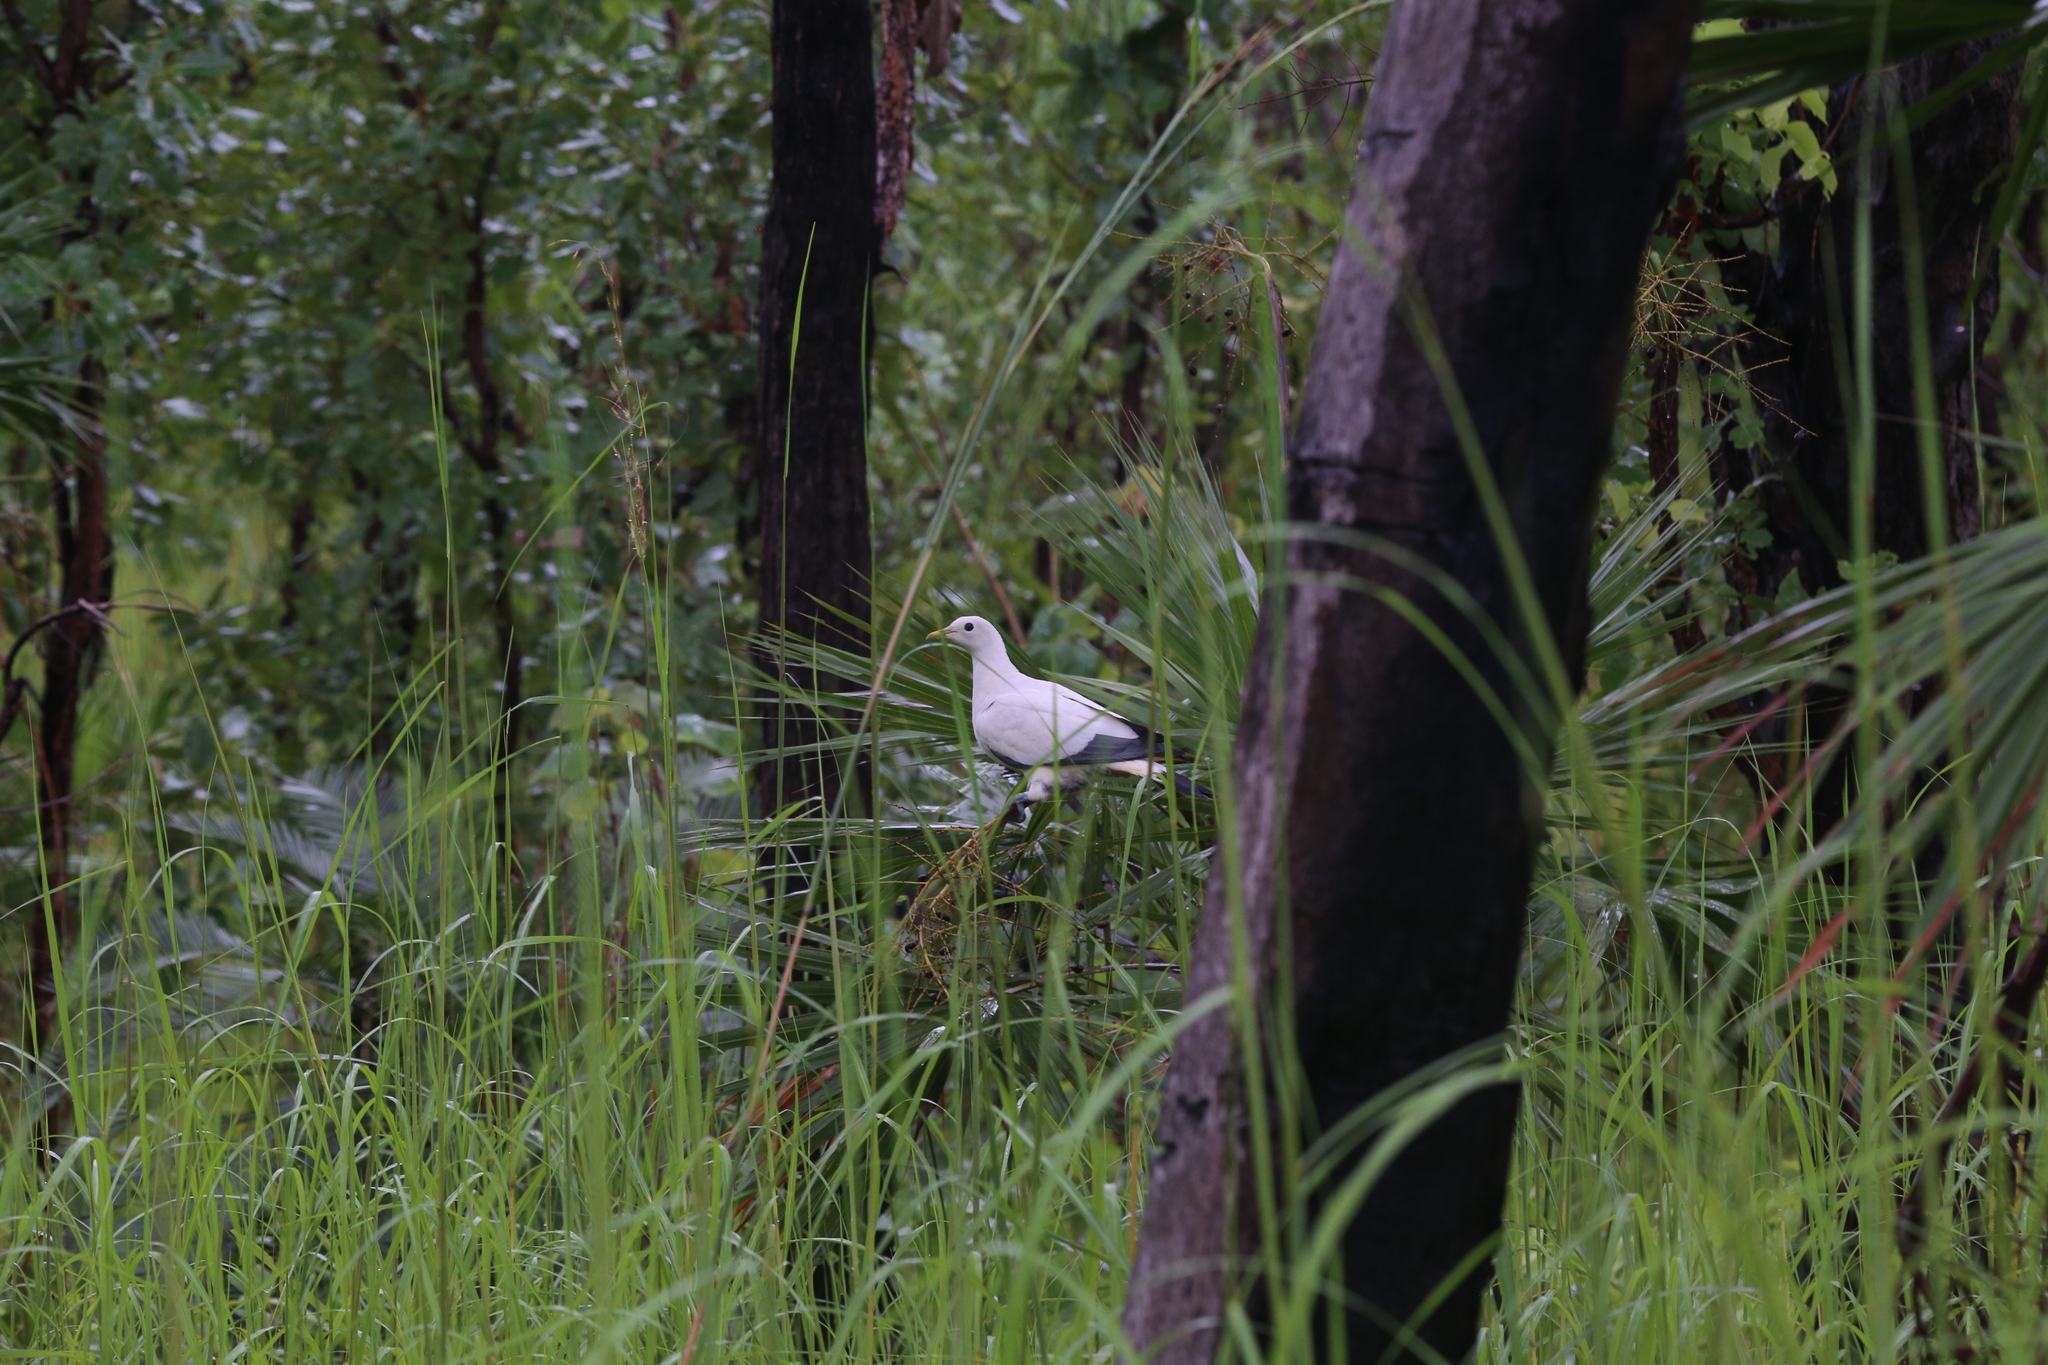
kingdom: Animalia
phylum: Chordata
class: Aves
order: Columbiformes
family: Columbidae
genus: Ducula
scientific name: Ducula spilorrhoa
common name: Torresian imperial pigeon
